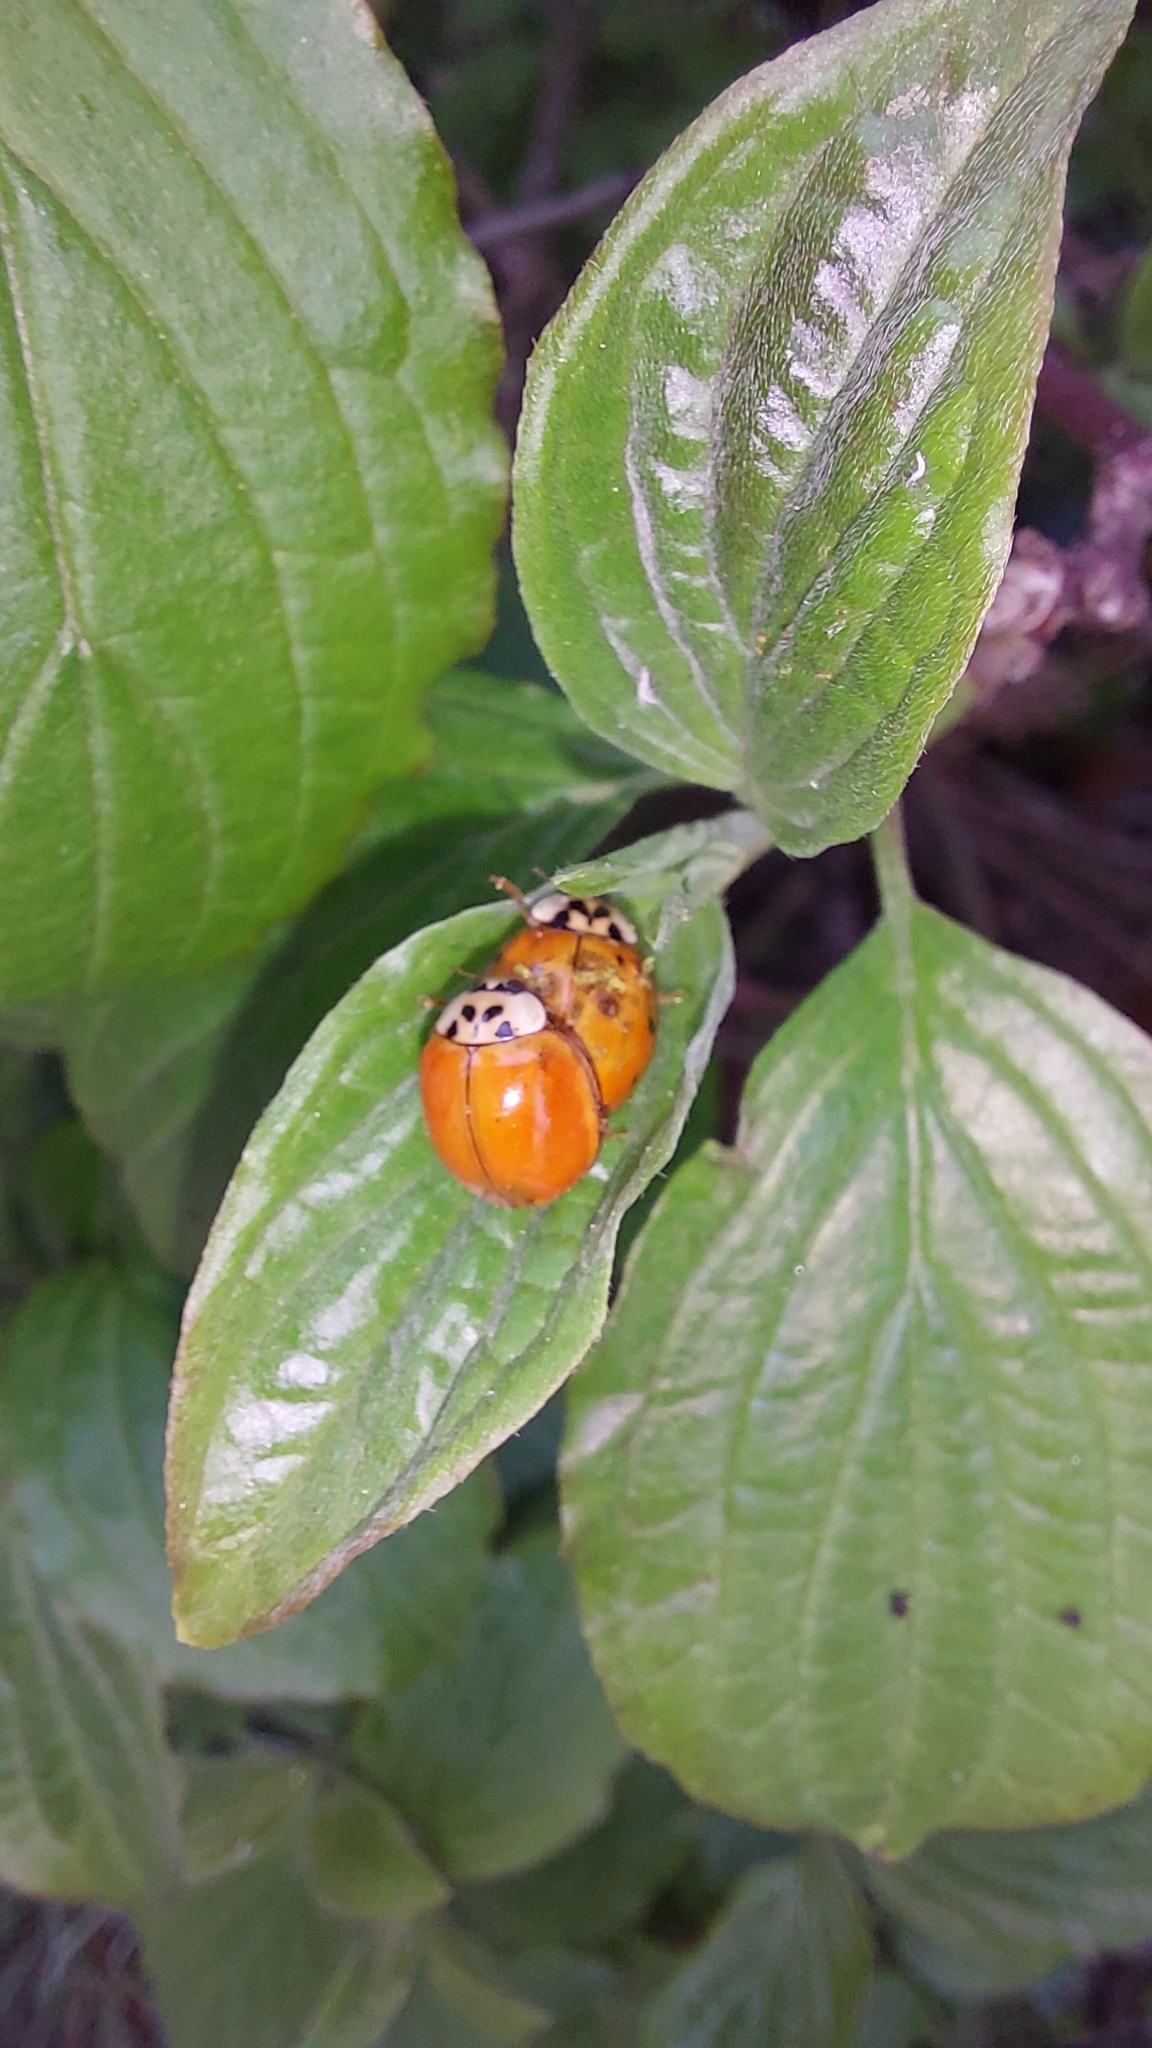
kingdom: Animalia
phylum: Arthropoda
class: Insecta
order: Coleoptera
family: Coccinellidae
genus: Harmonia
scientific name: Harmonia axyridis
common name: Harlequin ladybird
